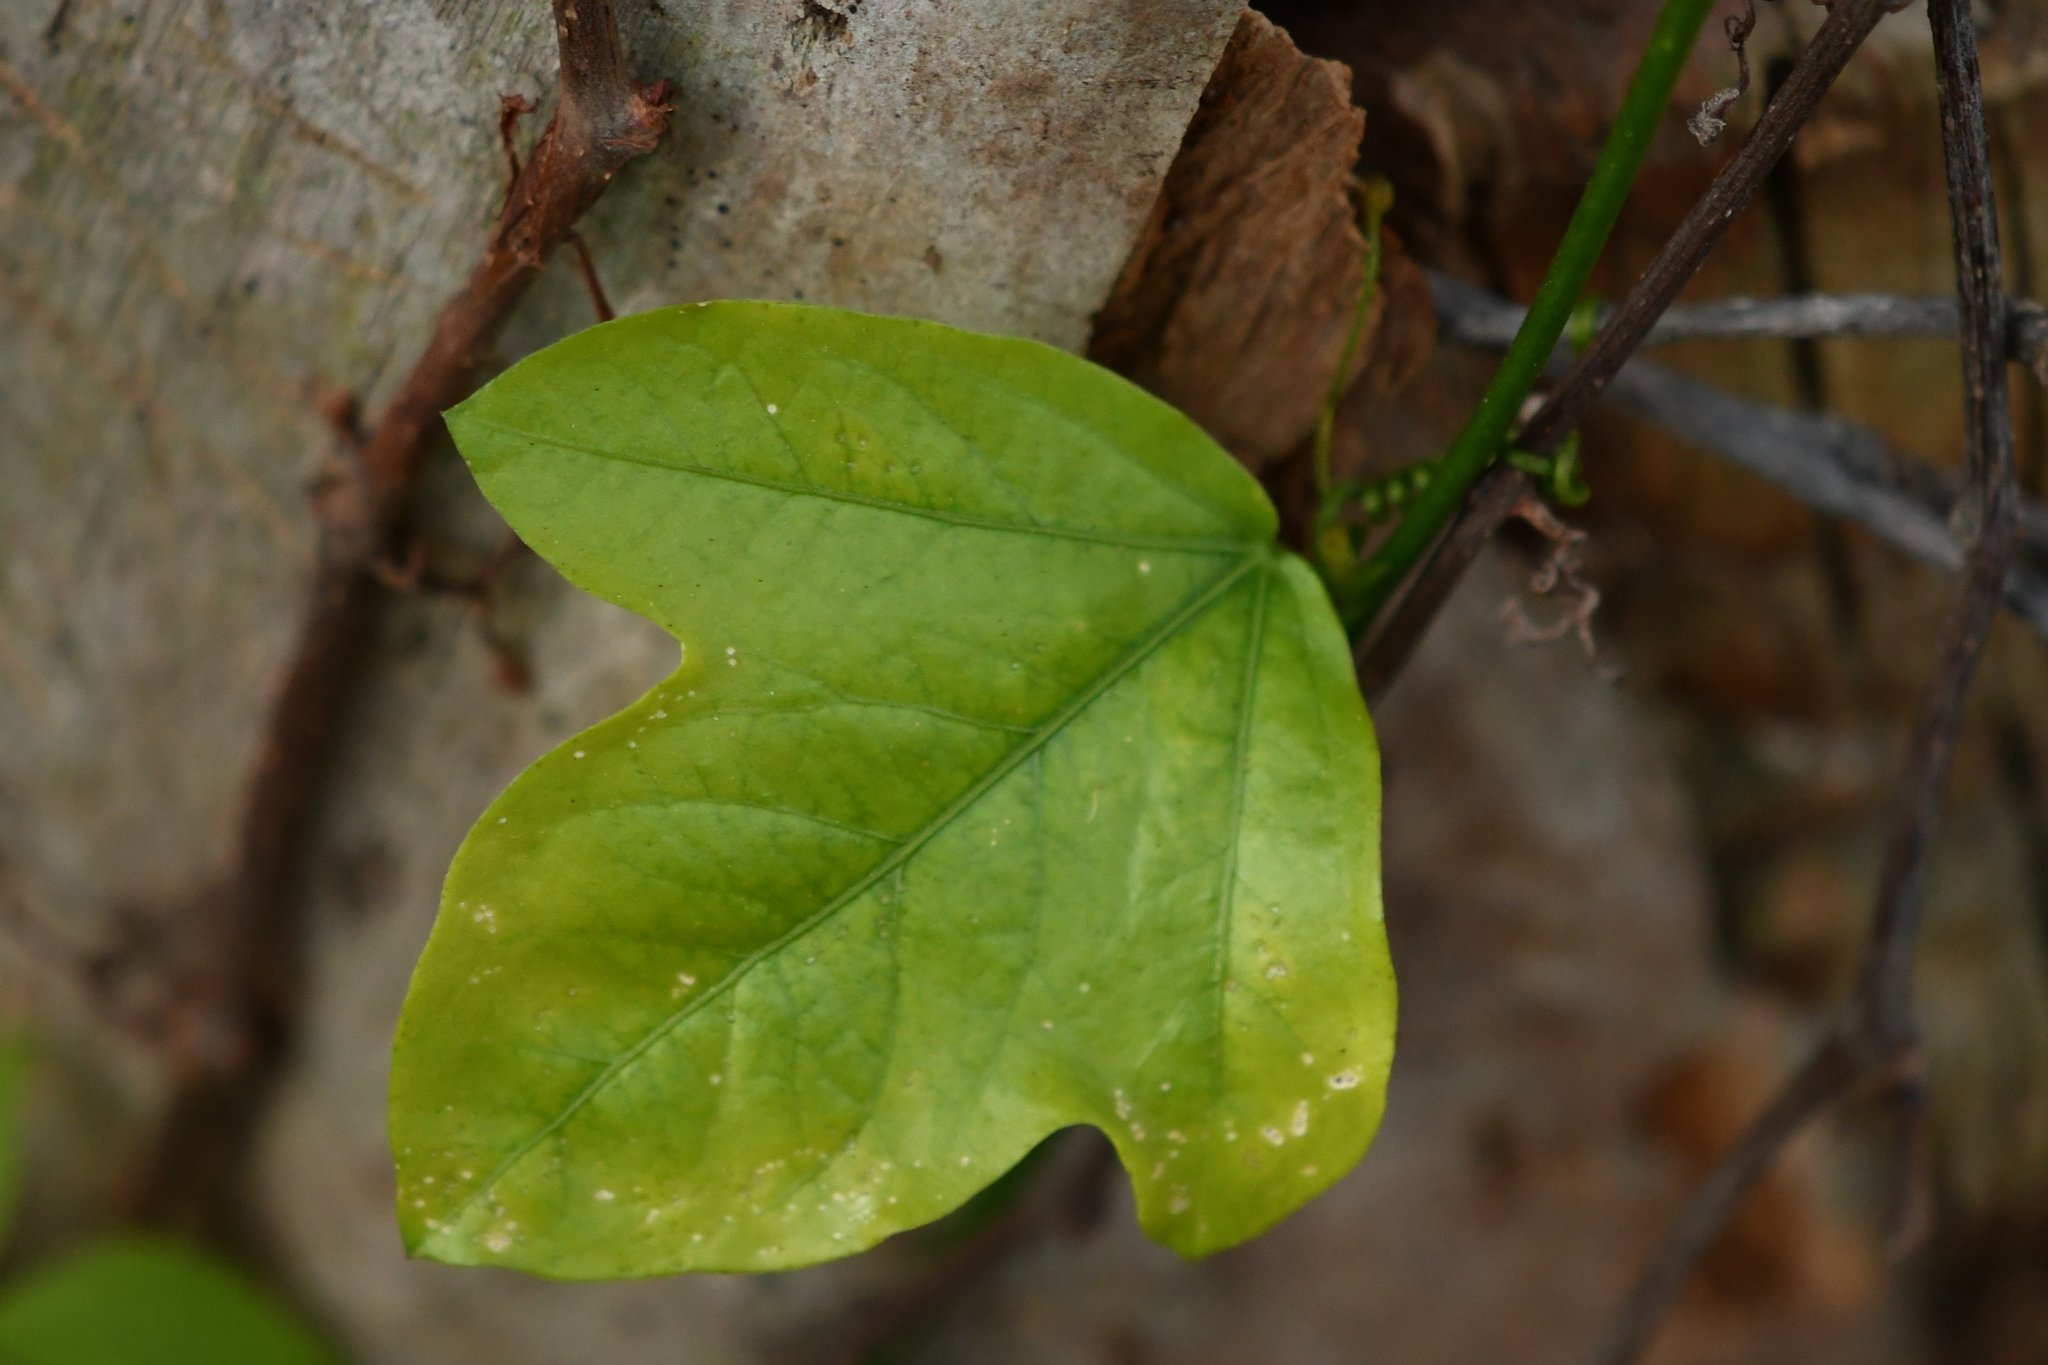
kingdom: Plantae
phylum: Tracheophyta
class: Magnoliopsida
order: Malpighiales
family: Passifloraceae
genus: Passiflora
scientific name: Passiflora pallida
